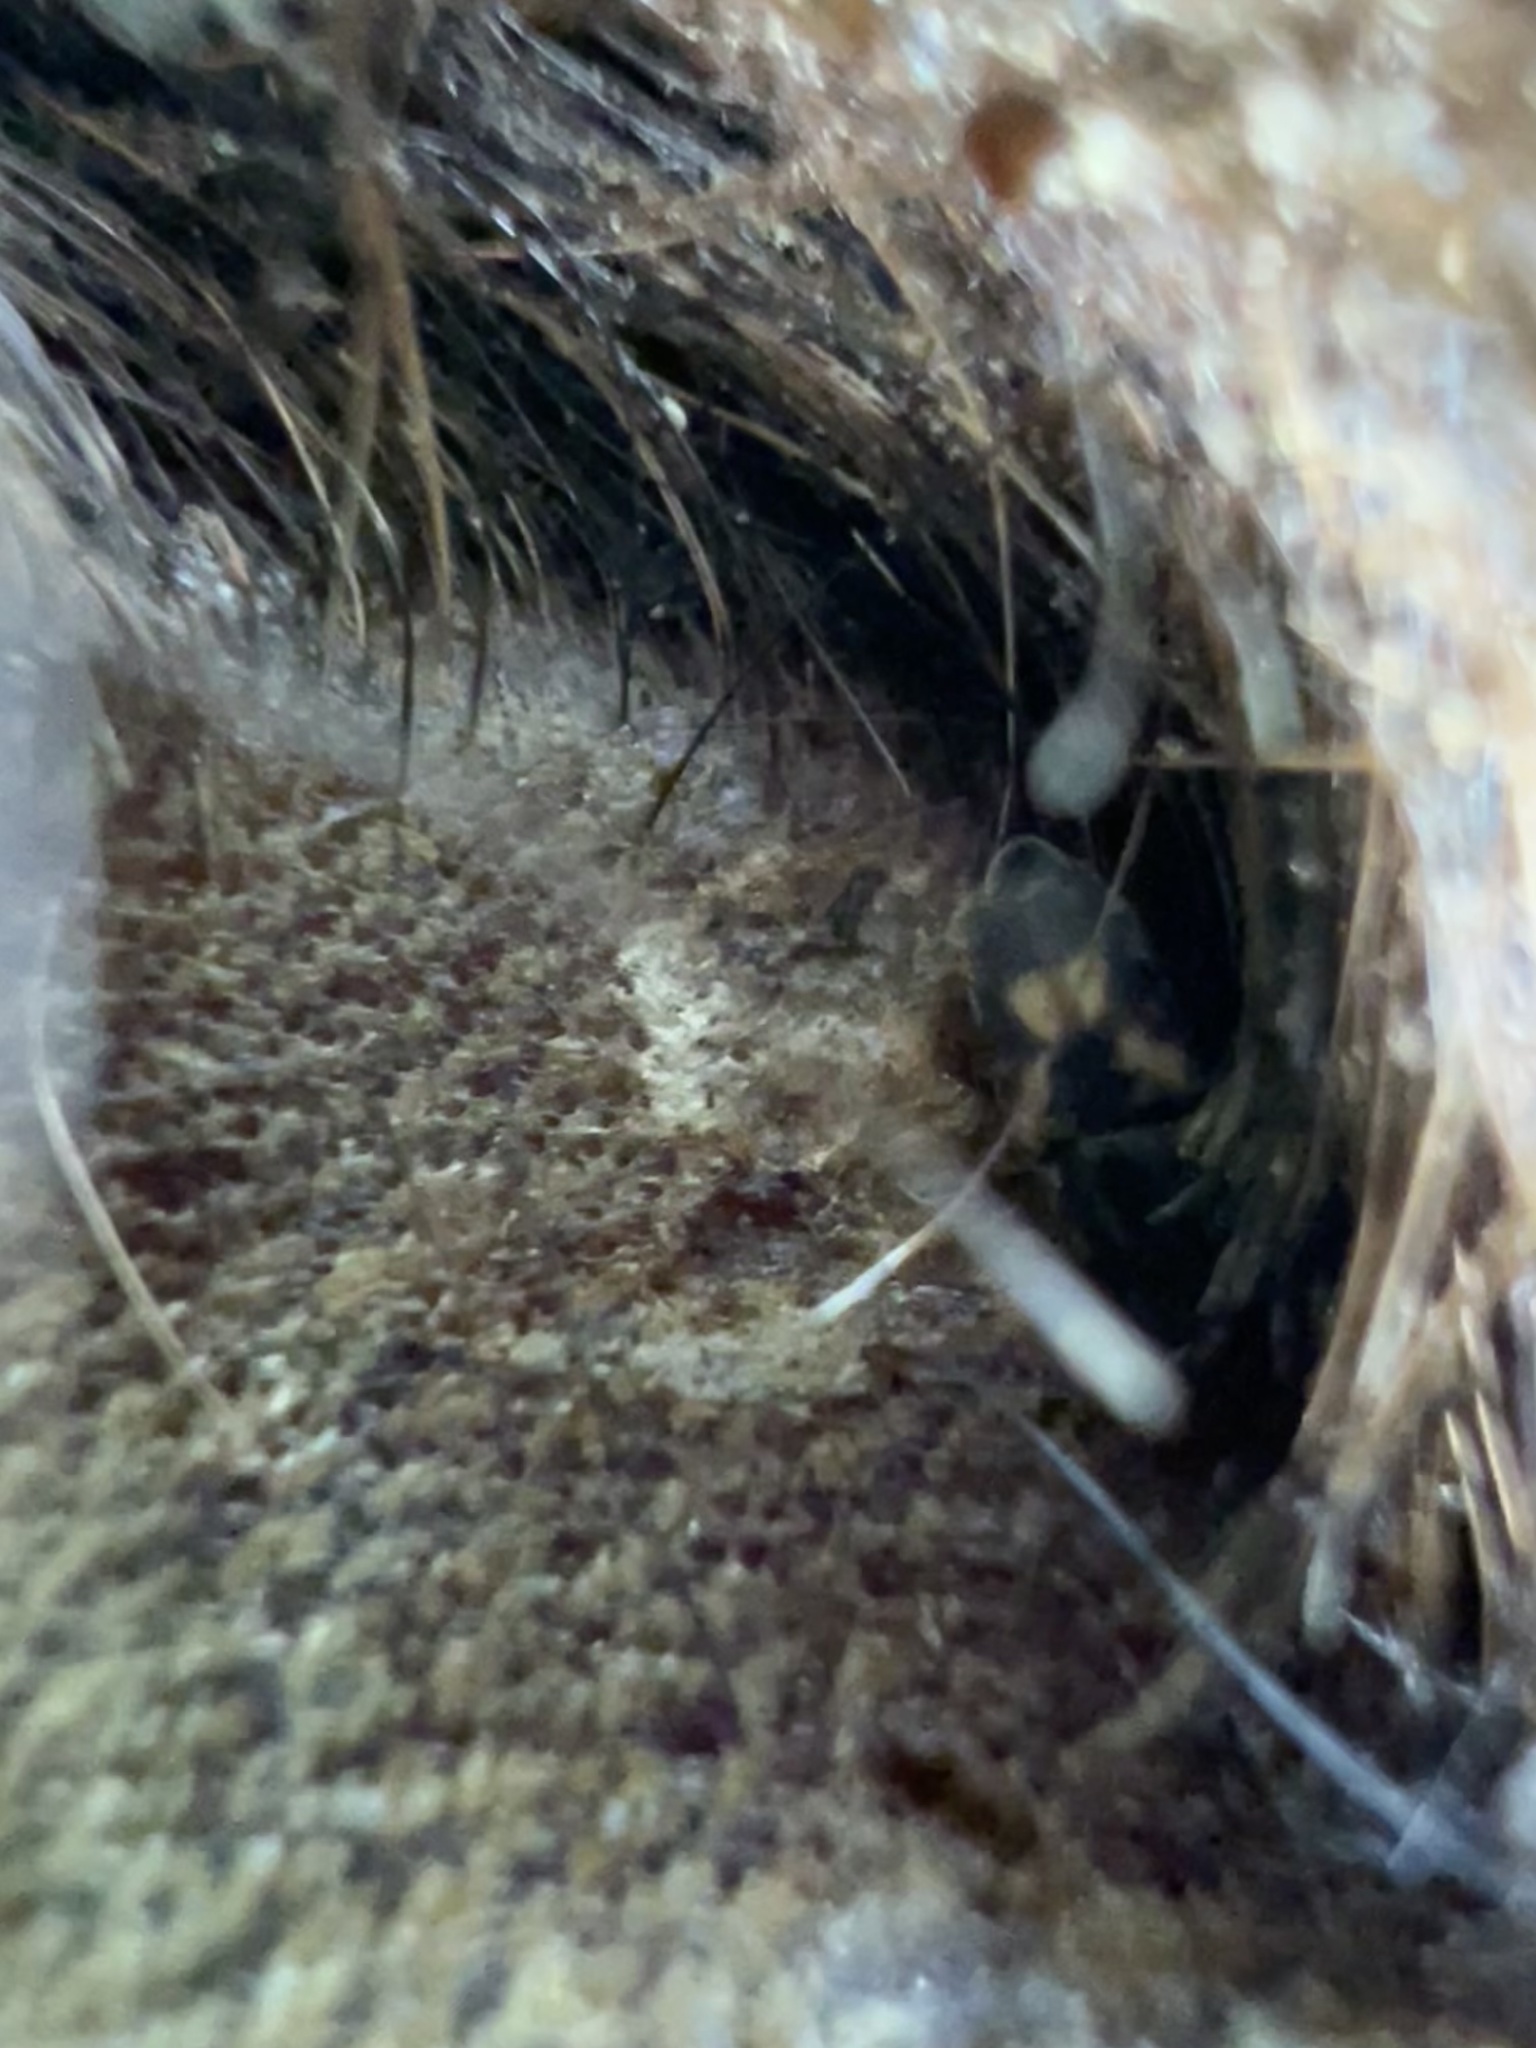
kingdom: Animalia
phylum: Arthropoda
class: Insecta
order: Coleoptera
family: Nitidulidae
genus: Nitidula
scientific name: Nitidula flavomaculata
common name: Sap beetle
